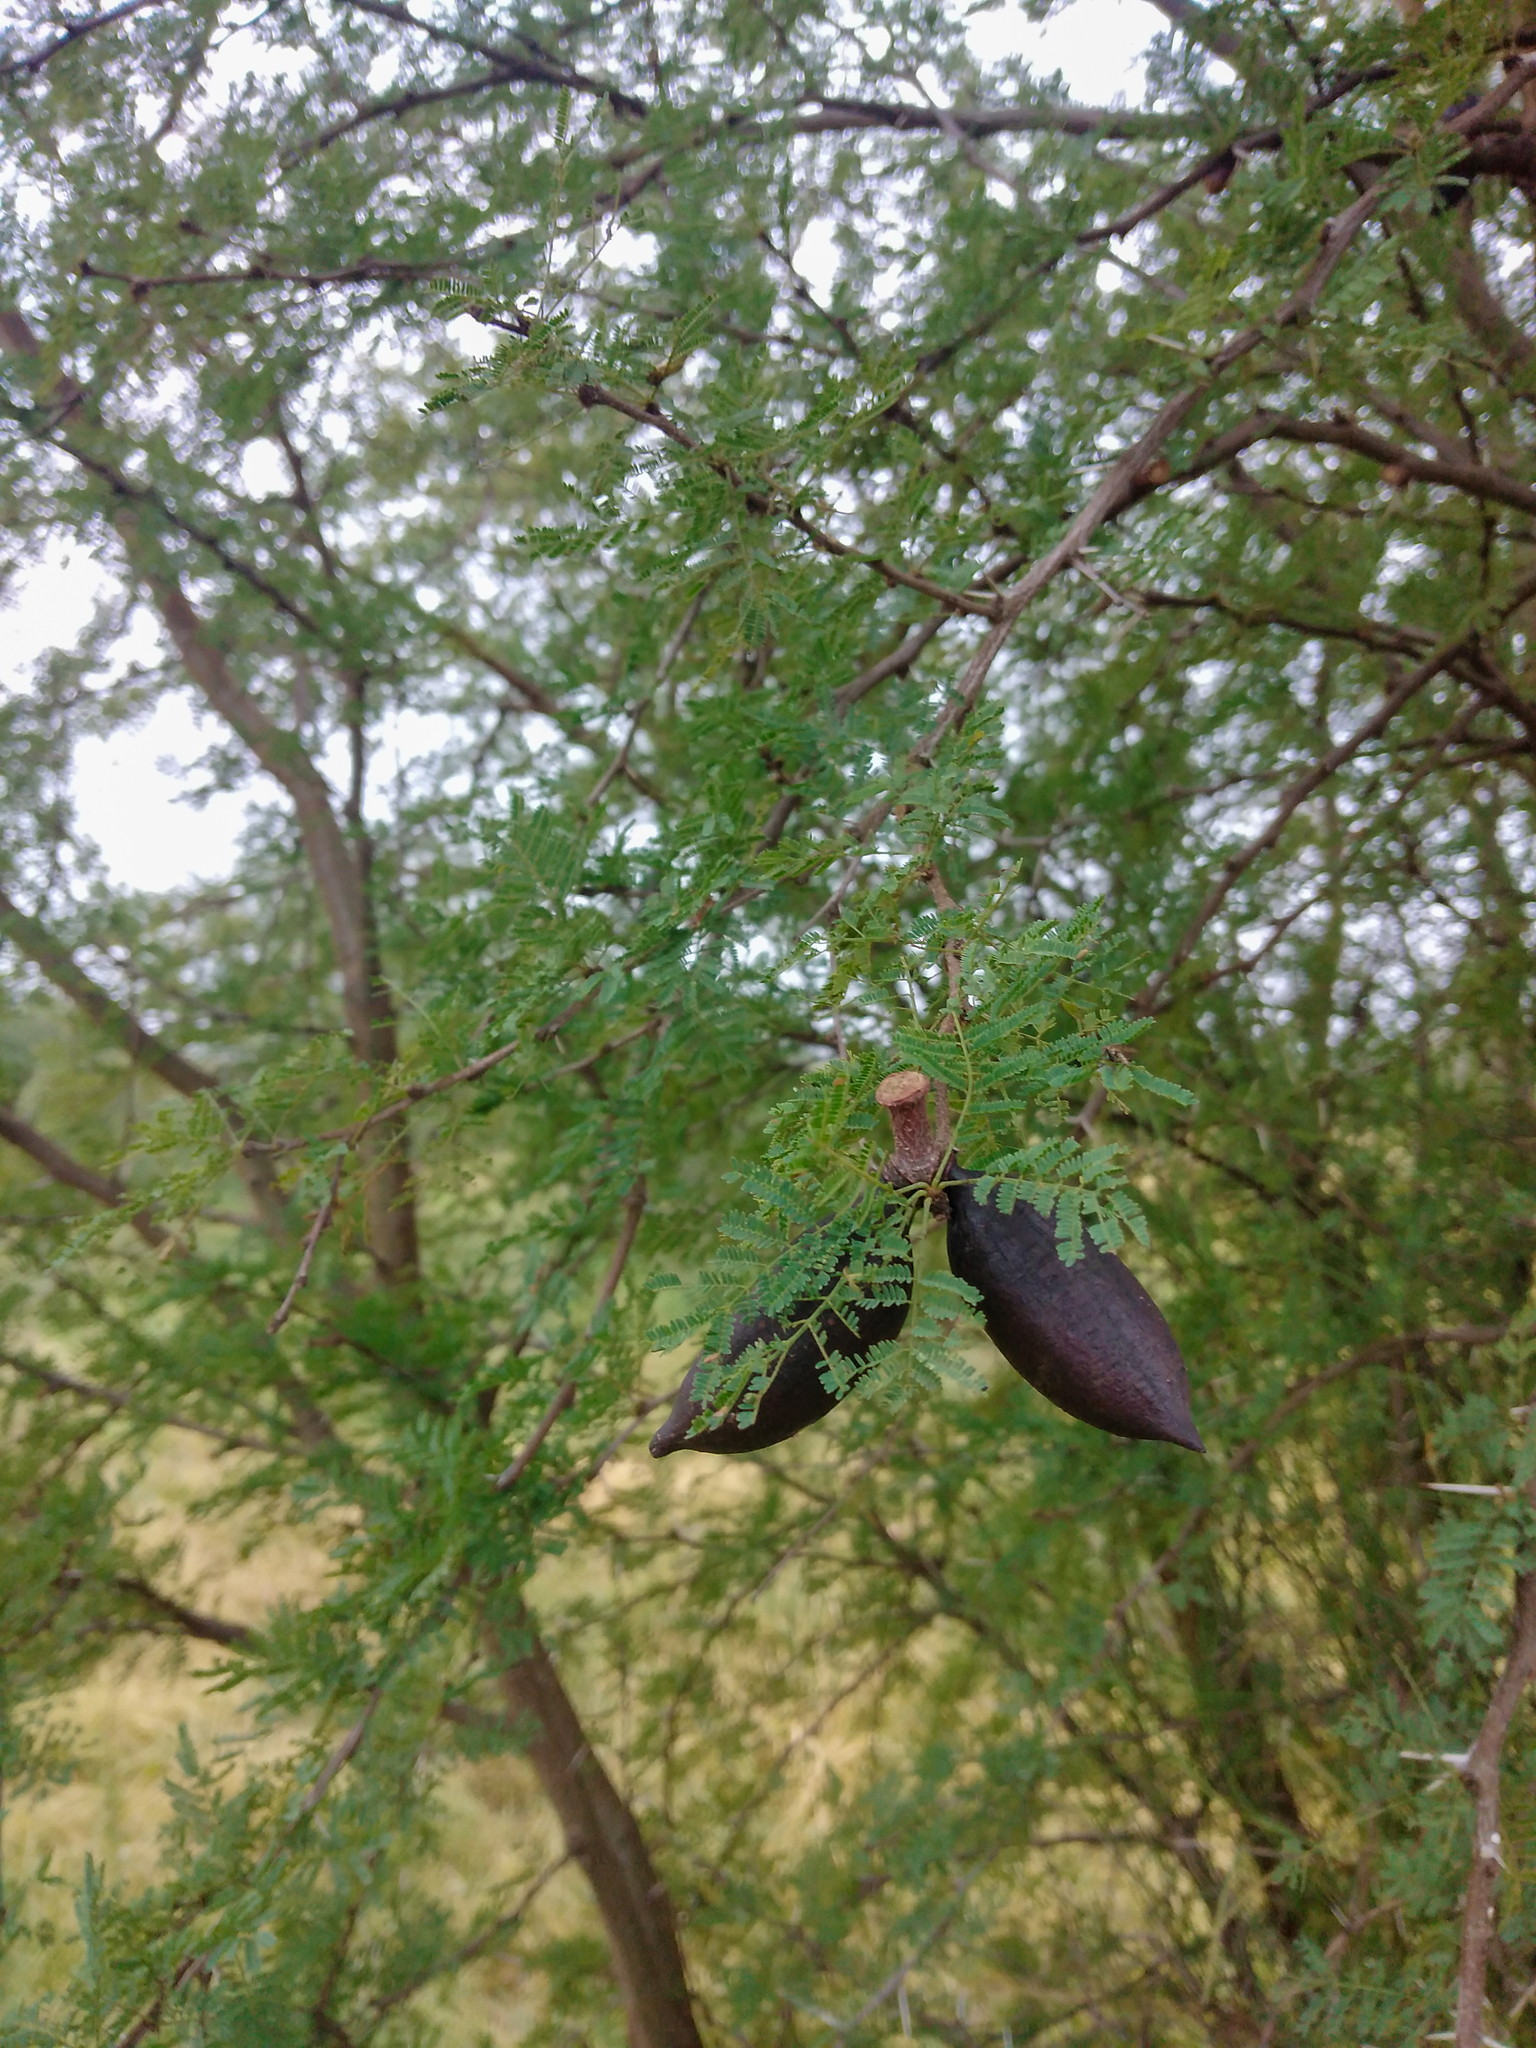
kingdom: Plantae
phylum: Tracheophyta
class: Magnoliopsida
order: Fabales
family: Fabaceae
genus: Vachellia
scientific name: Vachellia caven
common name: Roman cassie
